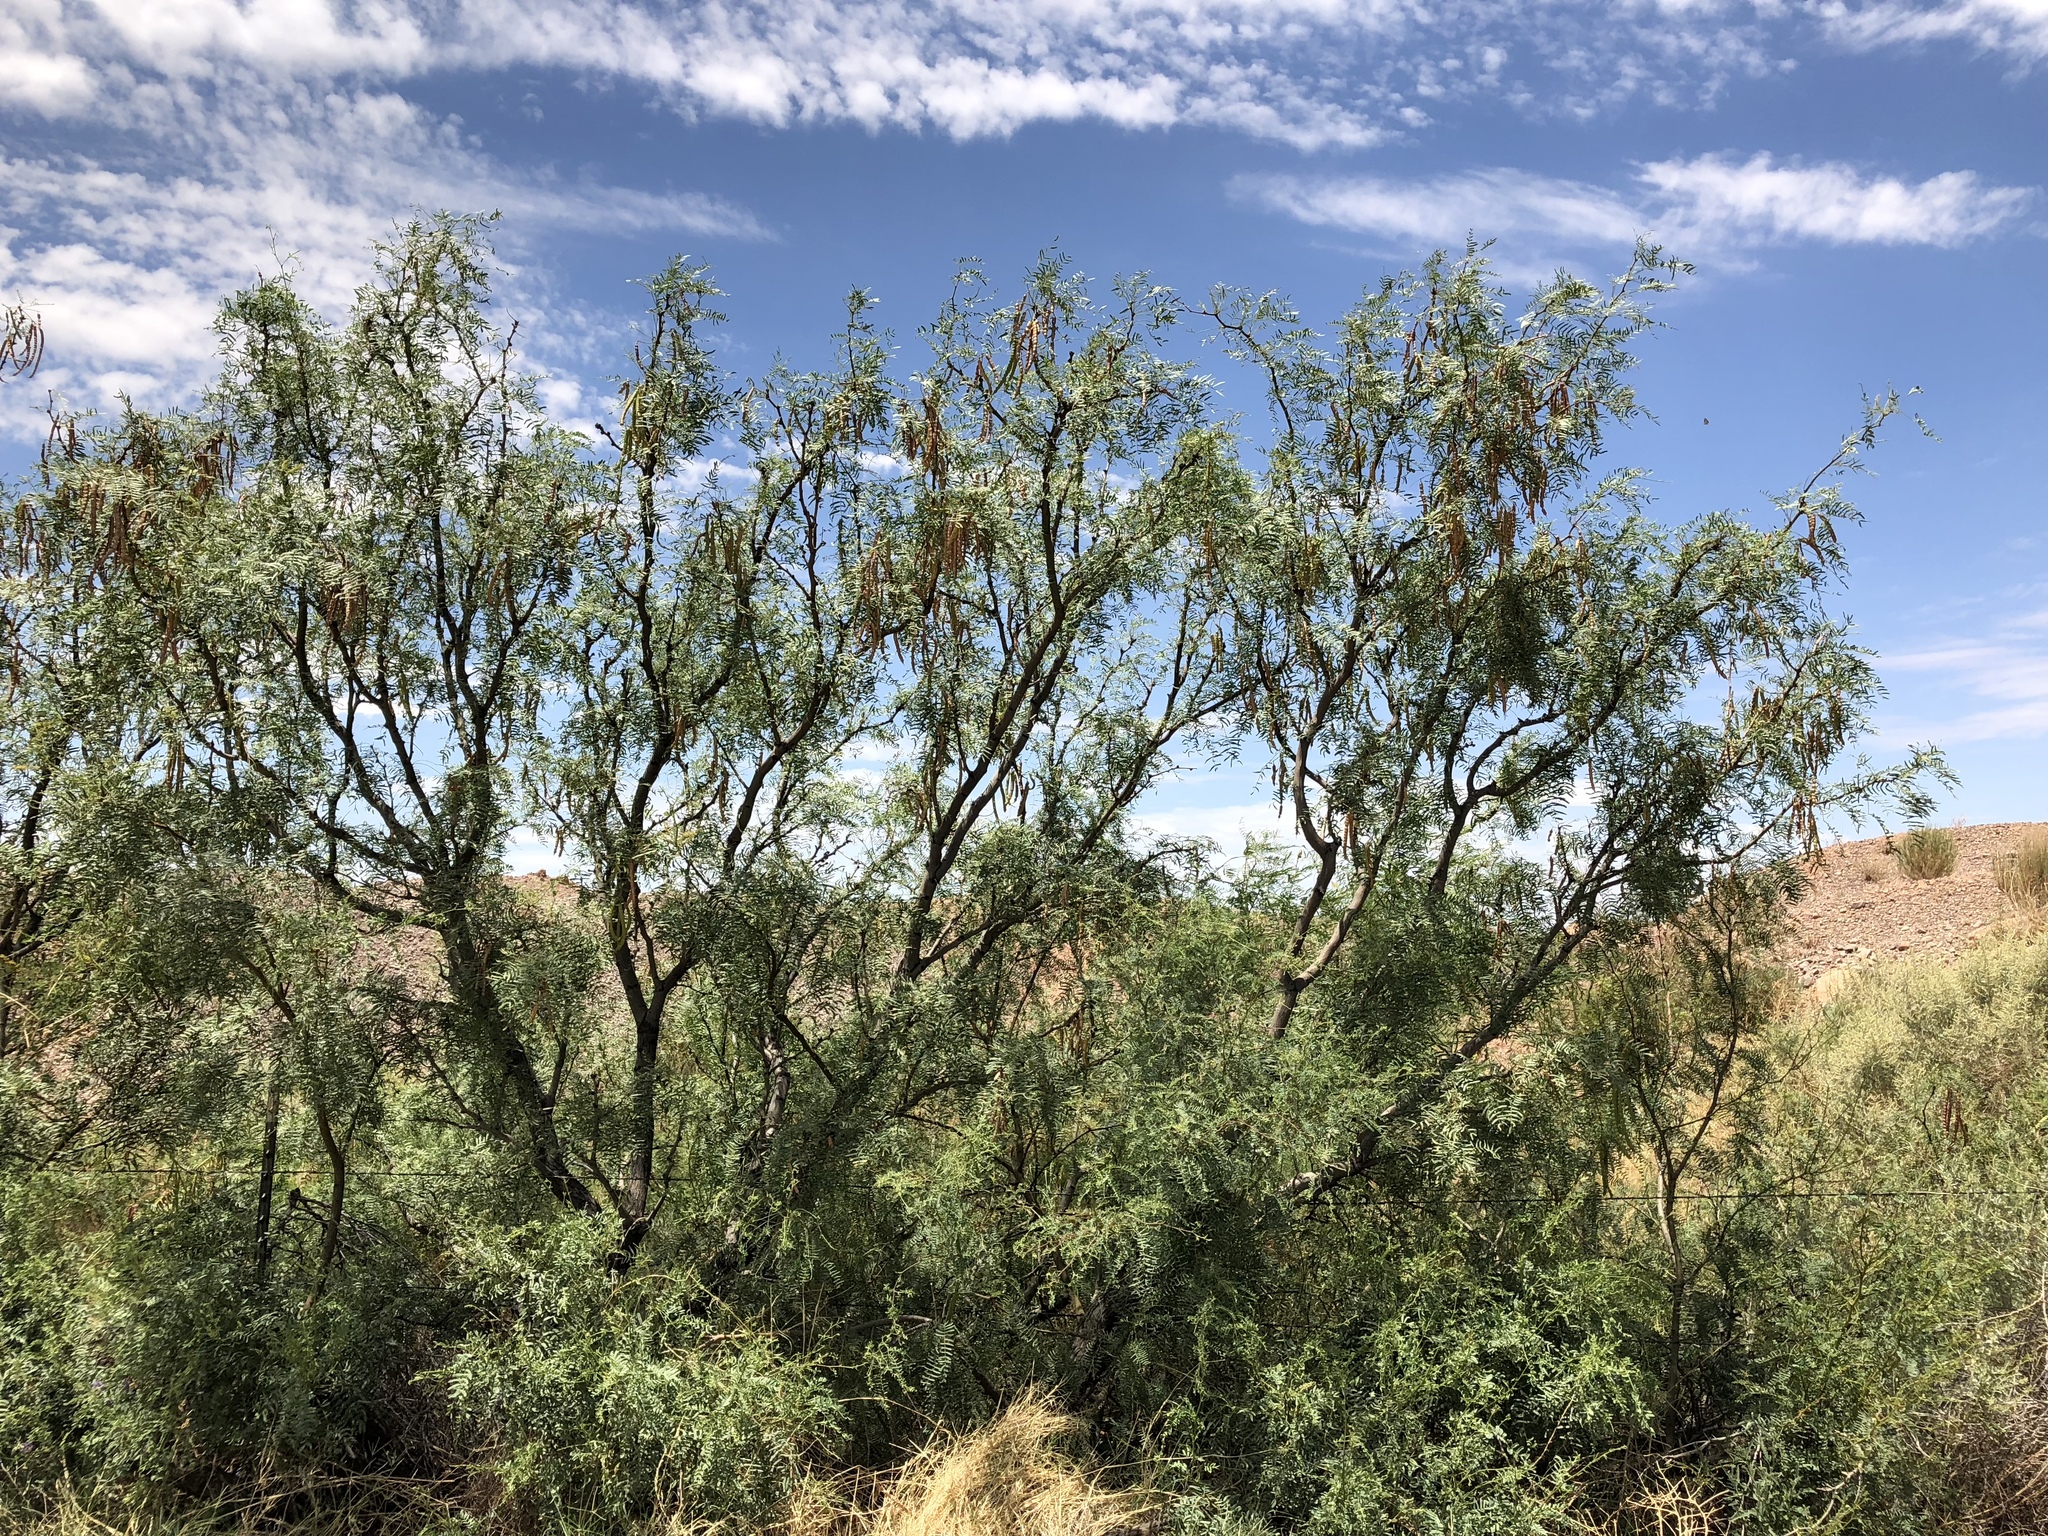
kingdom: Plantae
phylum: Tracheophyta
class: Magnoliopsida
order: Fabales
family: Fabaceae
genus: Prosopis
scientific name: Prosopis glandulosa
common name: Honey mesquite
